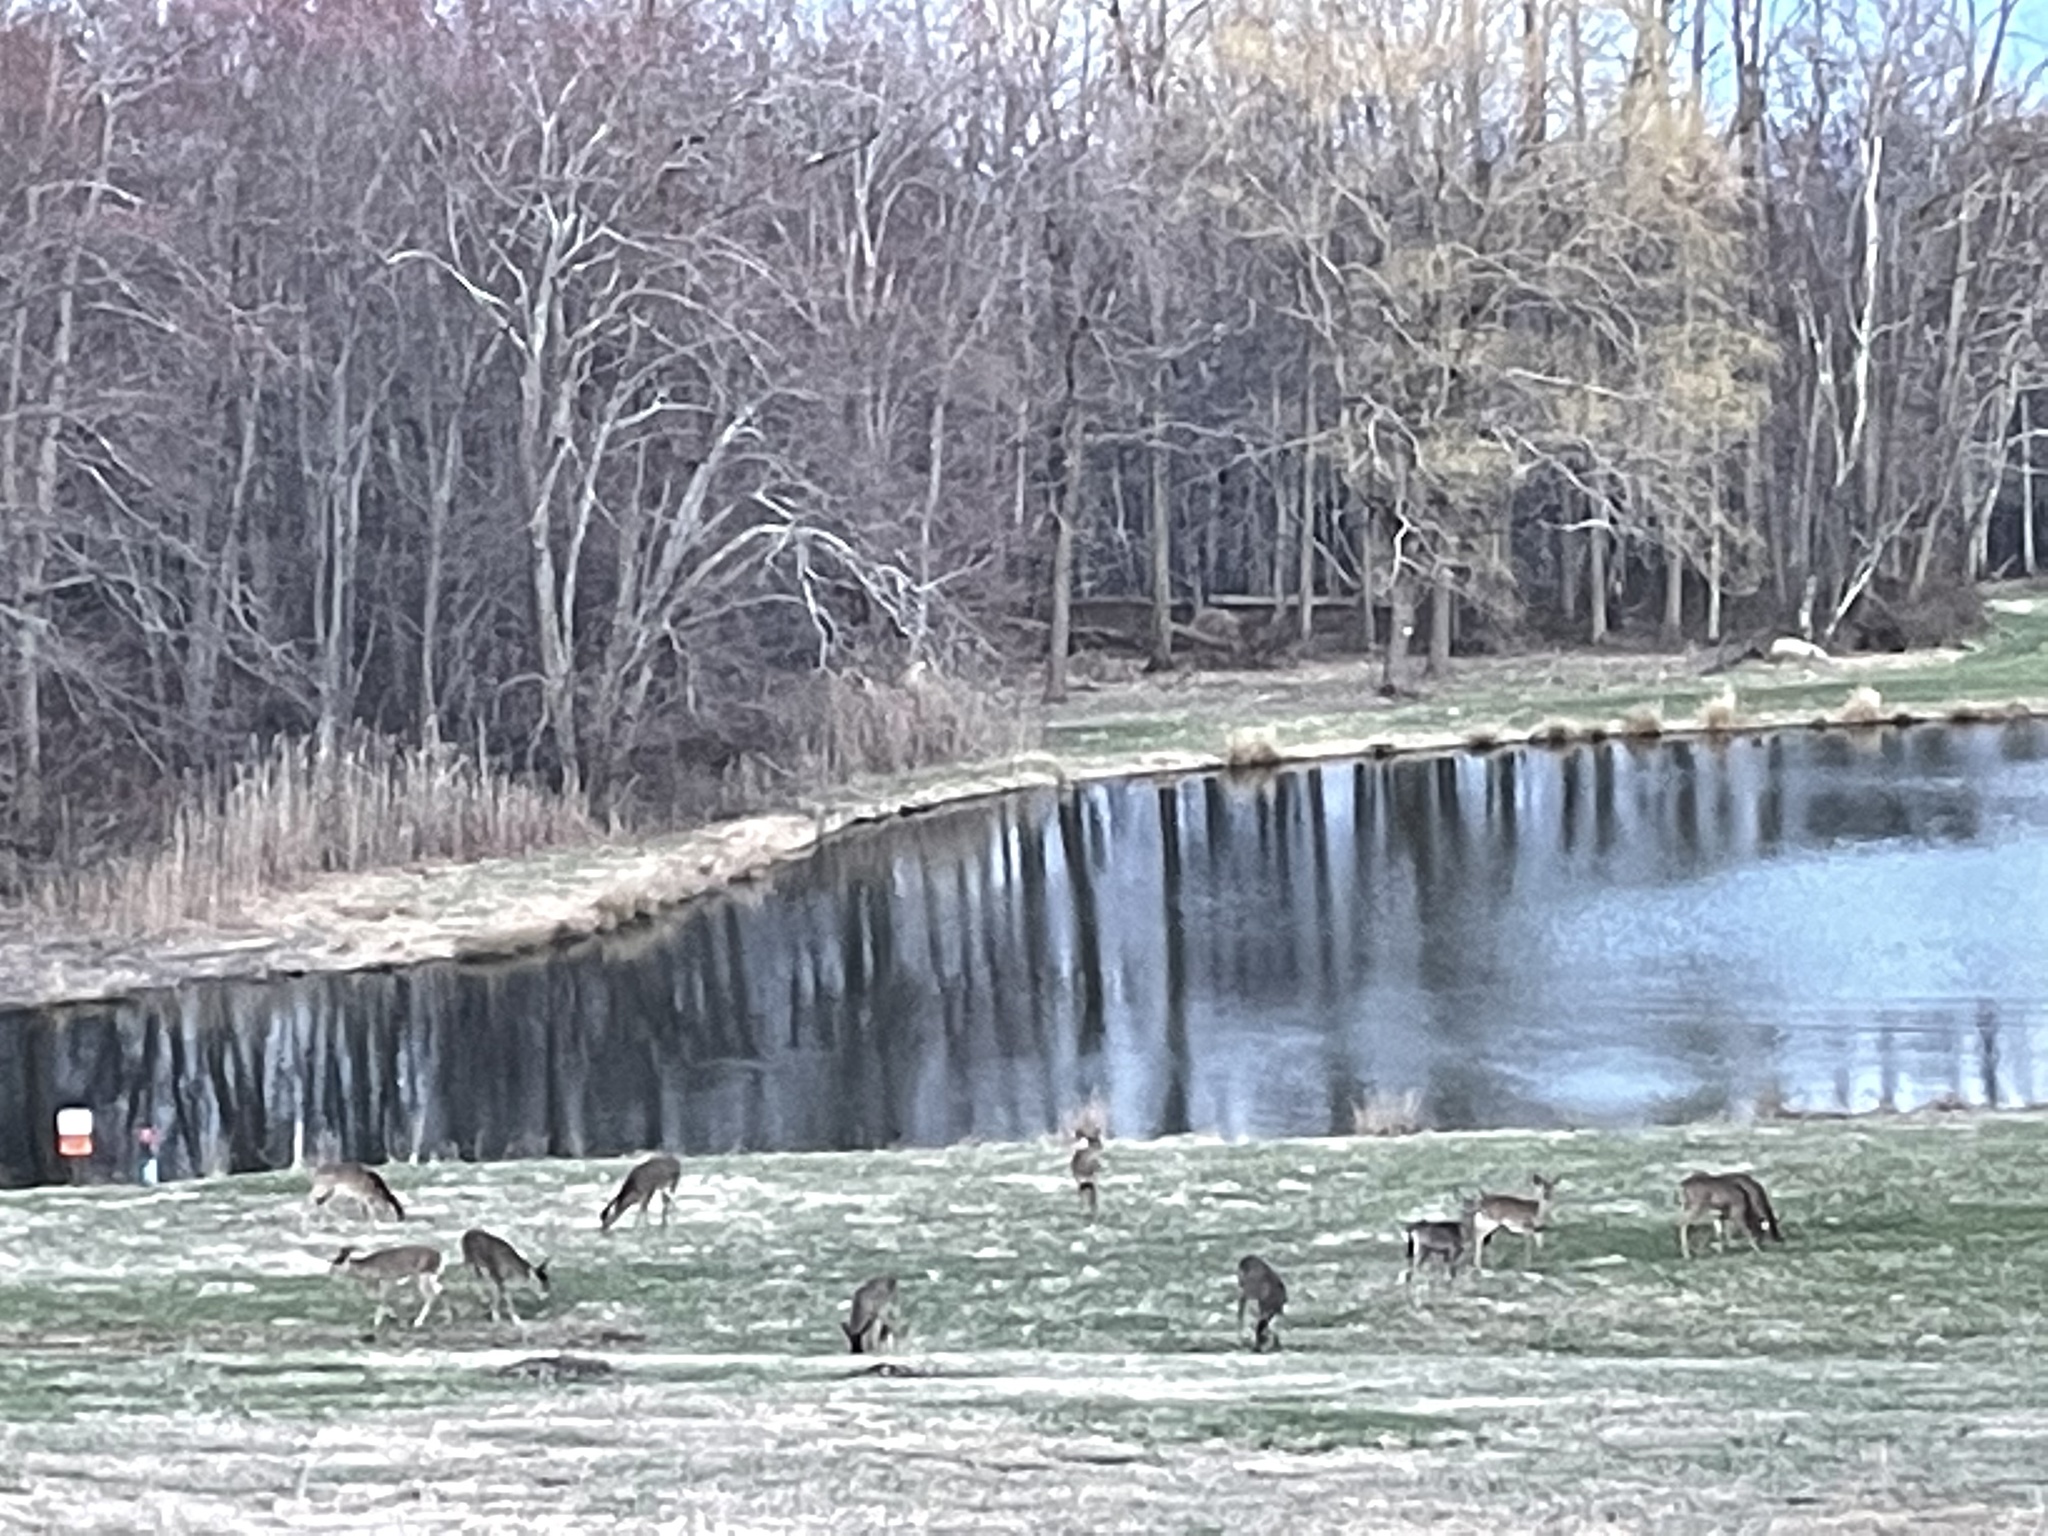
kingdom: Animalia
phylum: Chordata
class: Mammalia
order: Artiodactyla
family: Cervidae
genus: Odocoileus
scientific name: Odocoileus virginianus
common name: White-tailed deer
